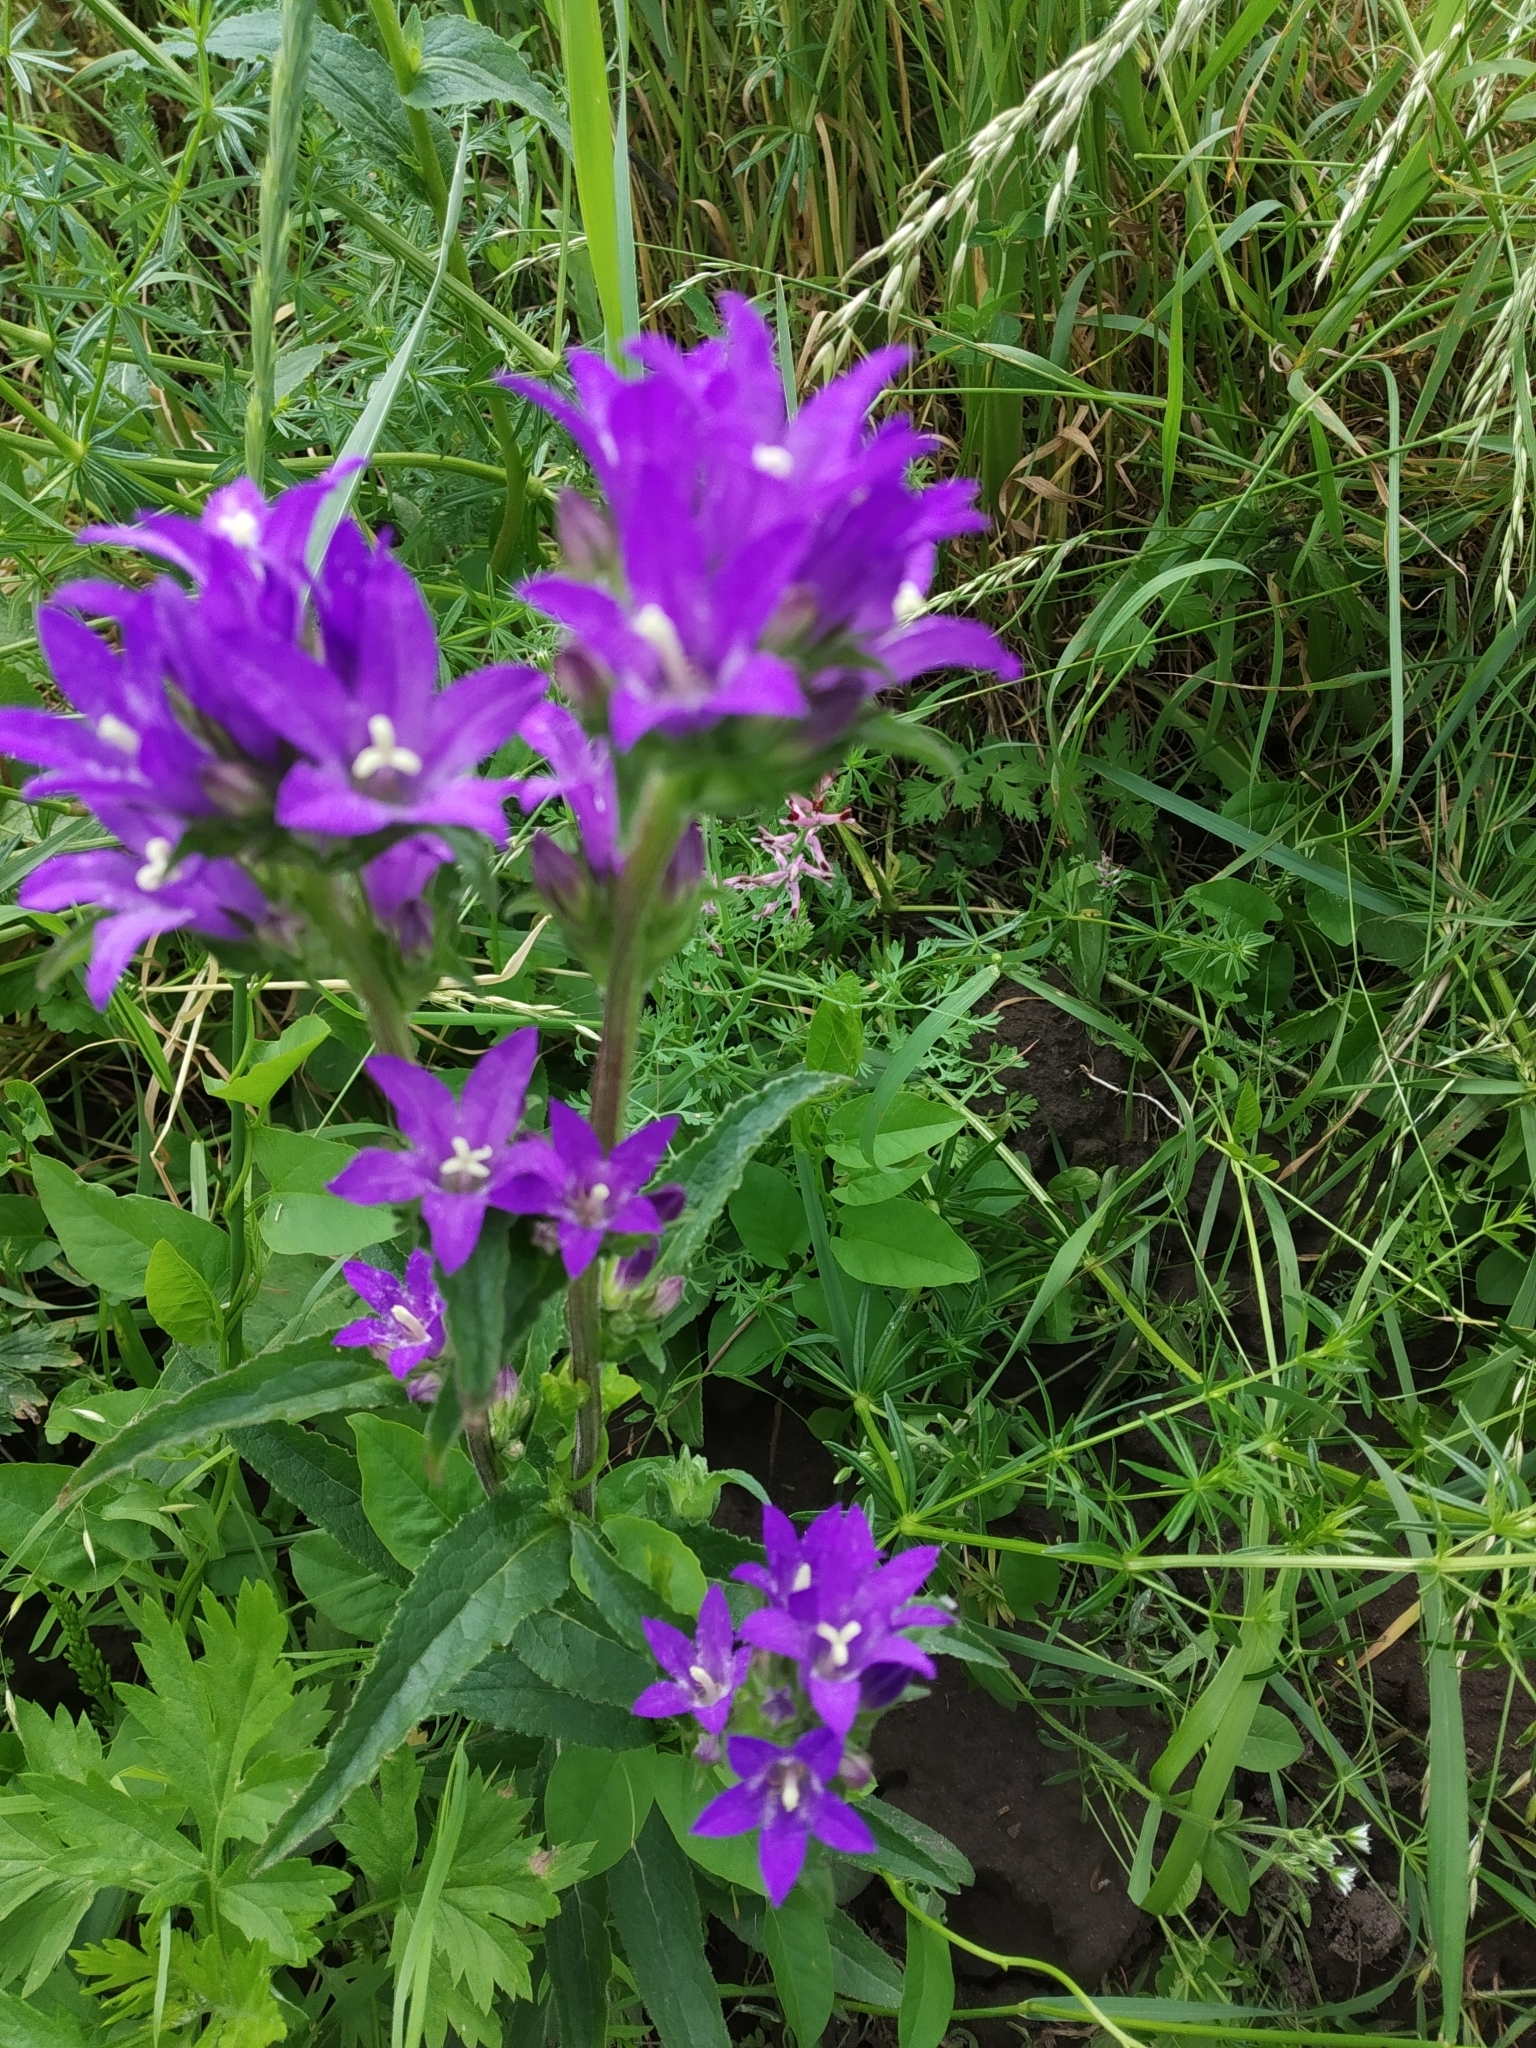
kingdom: Plantae
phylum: Tracheophyta
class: Magnoliopsida
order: Asterales
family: Campanulaceae
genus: Campanula
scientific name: Campanula glomerata
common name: Clustered bellflower
